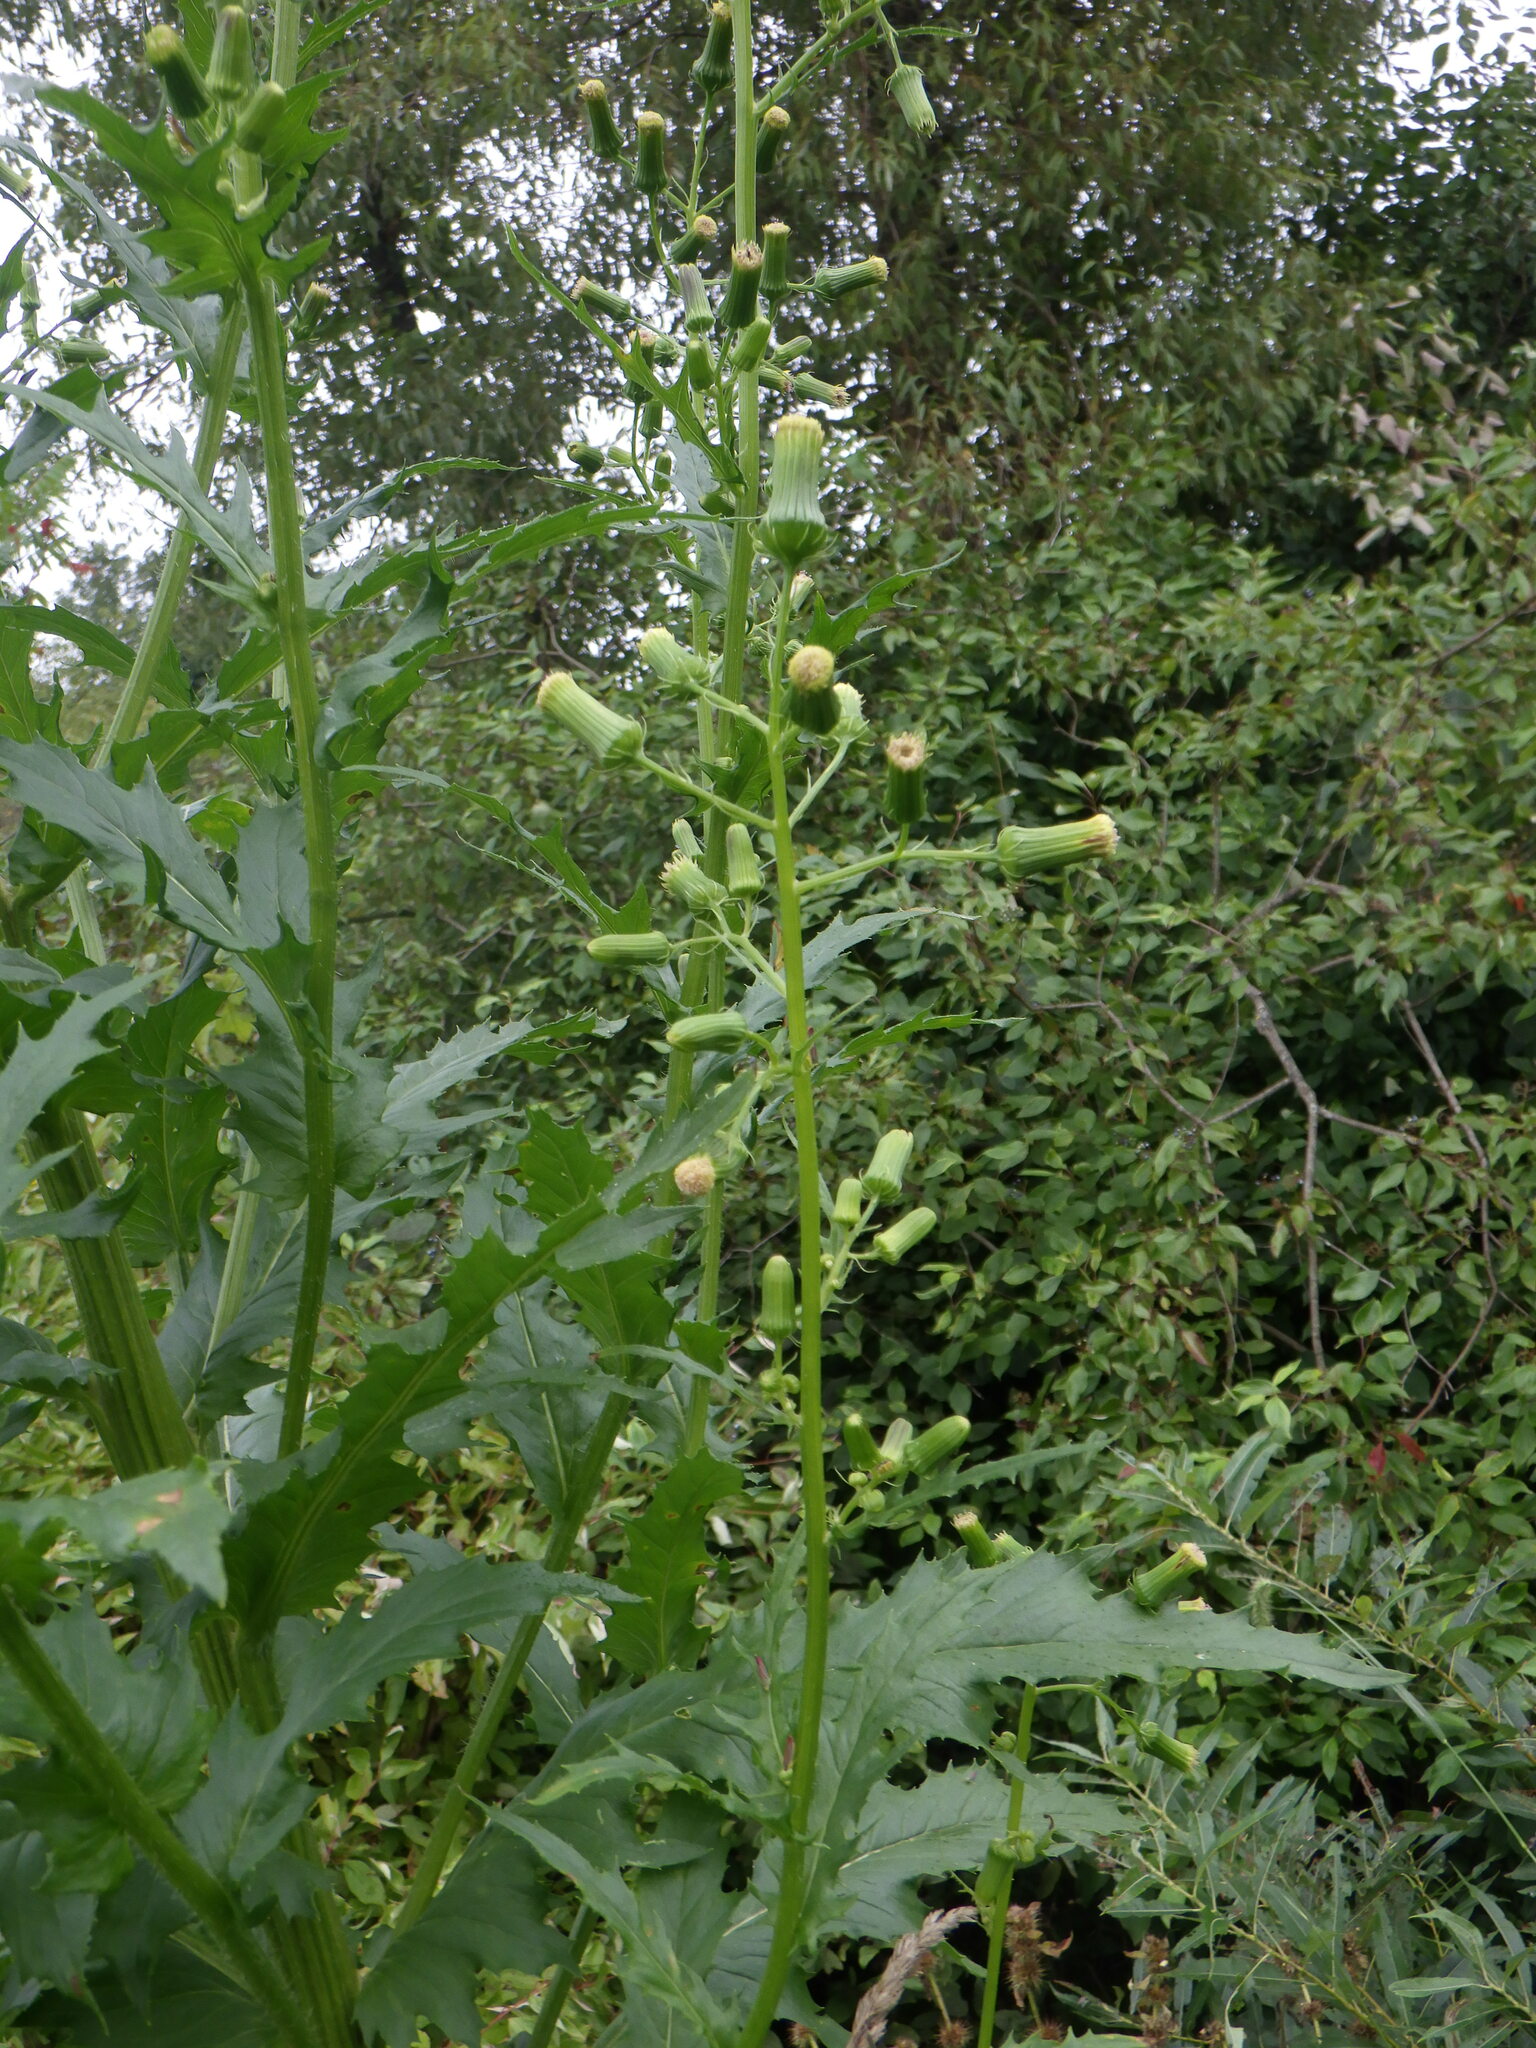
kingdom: Plantae
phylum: Tracheophyta
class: Magnoliopsida
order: Asterales
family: Asteraceae
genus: Erechtites
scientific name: Erechtites hieraciifolius
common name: American burnweed
